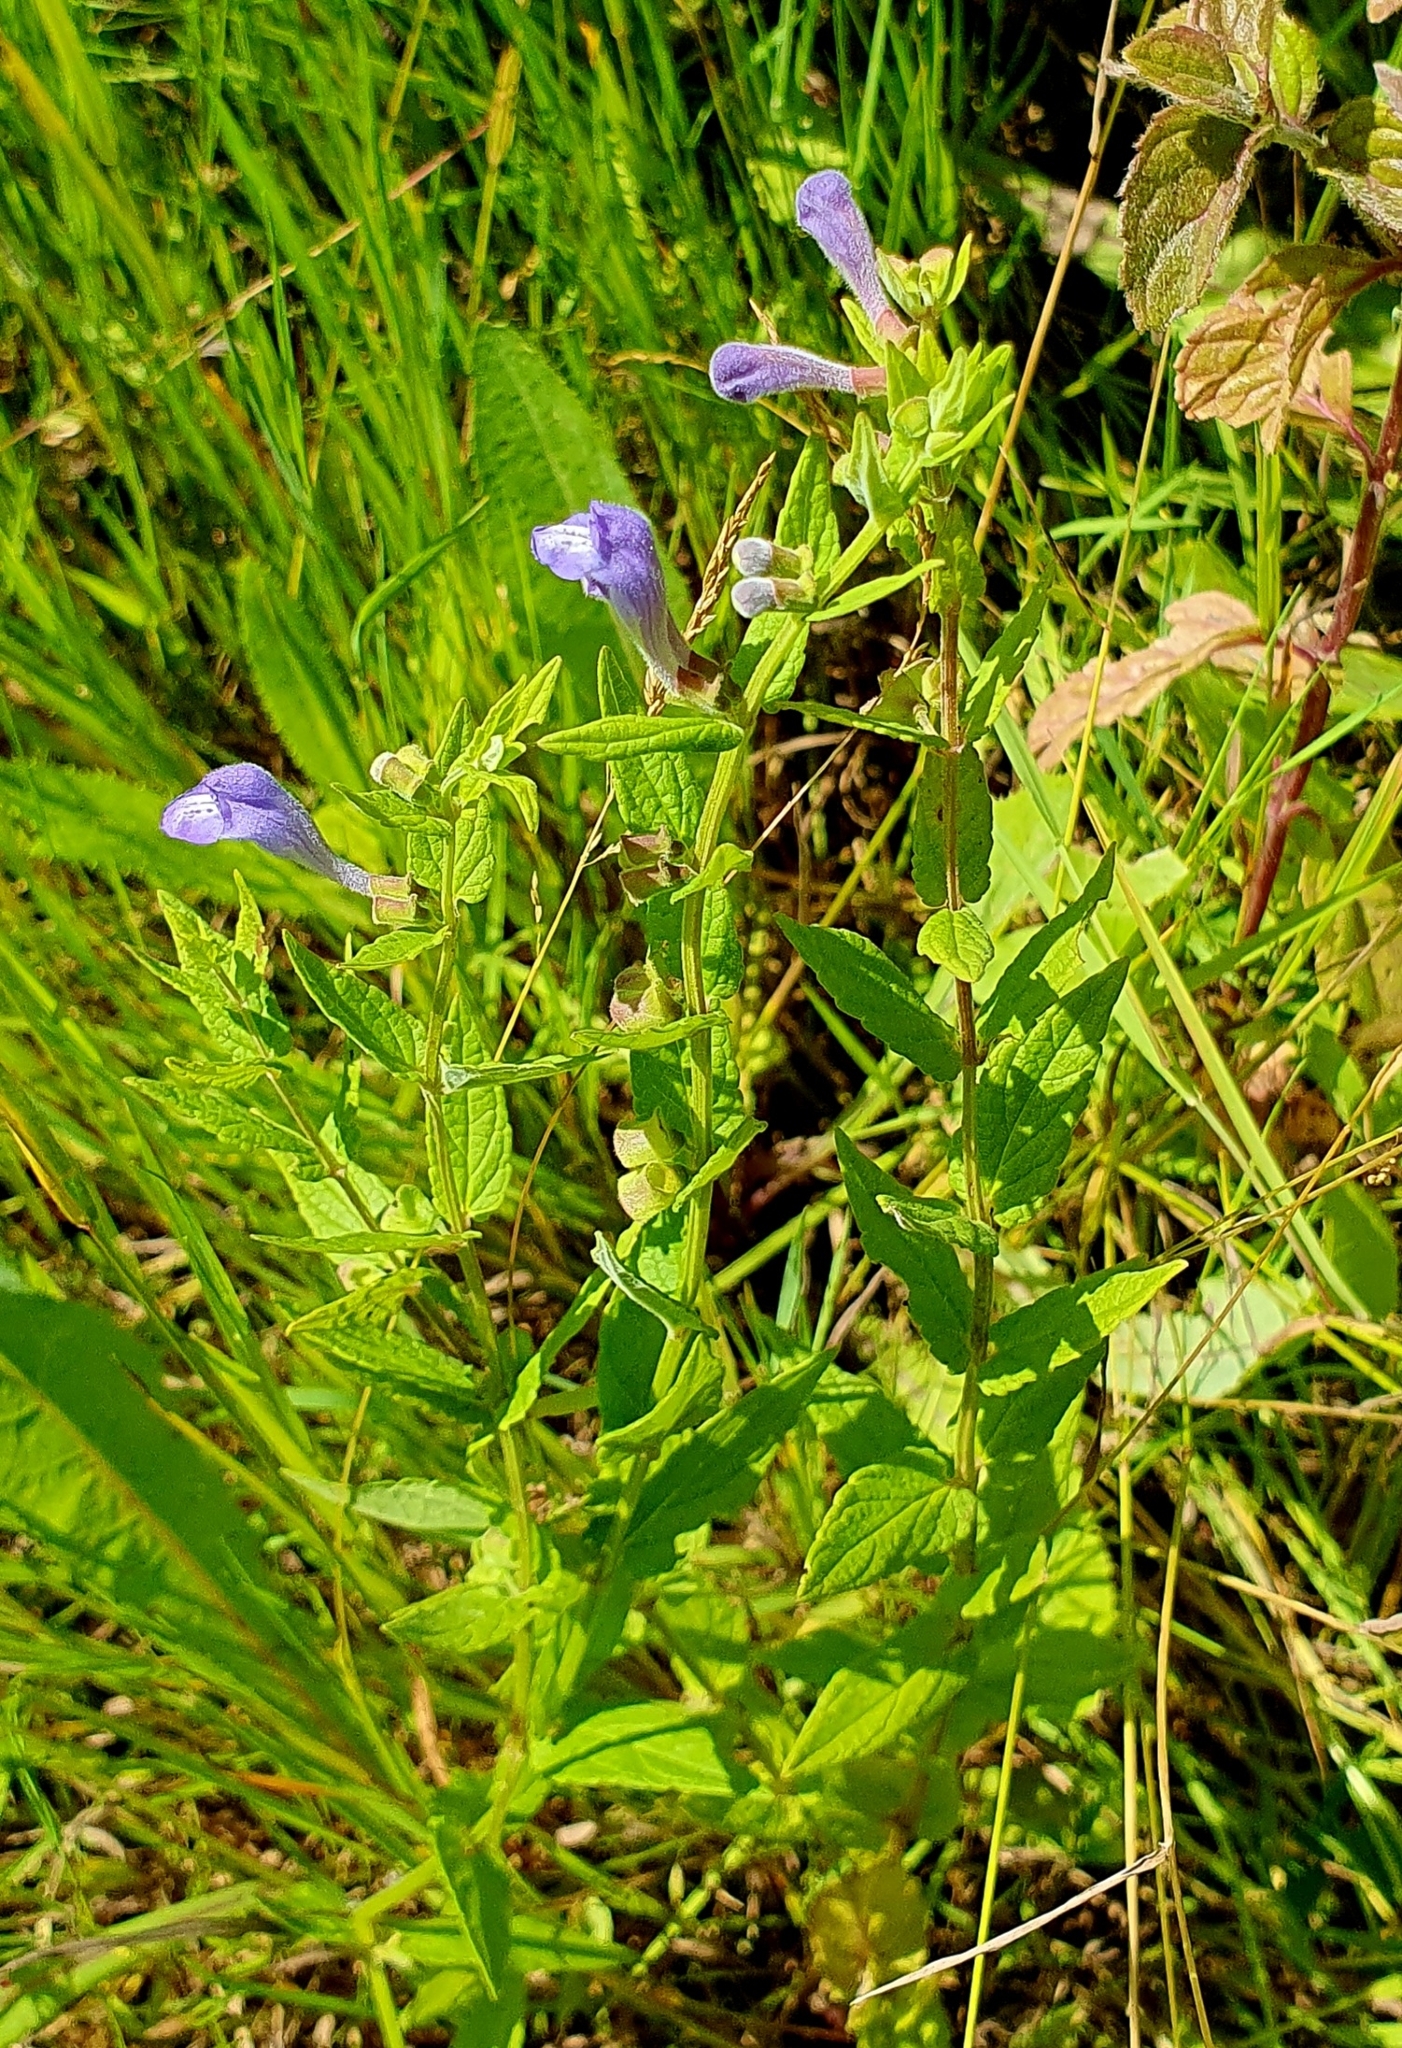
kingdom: Plantae
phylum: Tracheophyta
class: Magnoliopsida
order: Lamiales
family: Lamiaceae
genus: Scutellaria
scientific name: Scutellaria galericulata
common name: Skullcap
